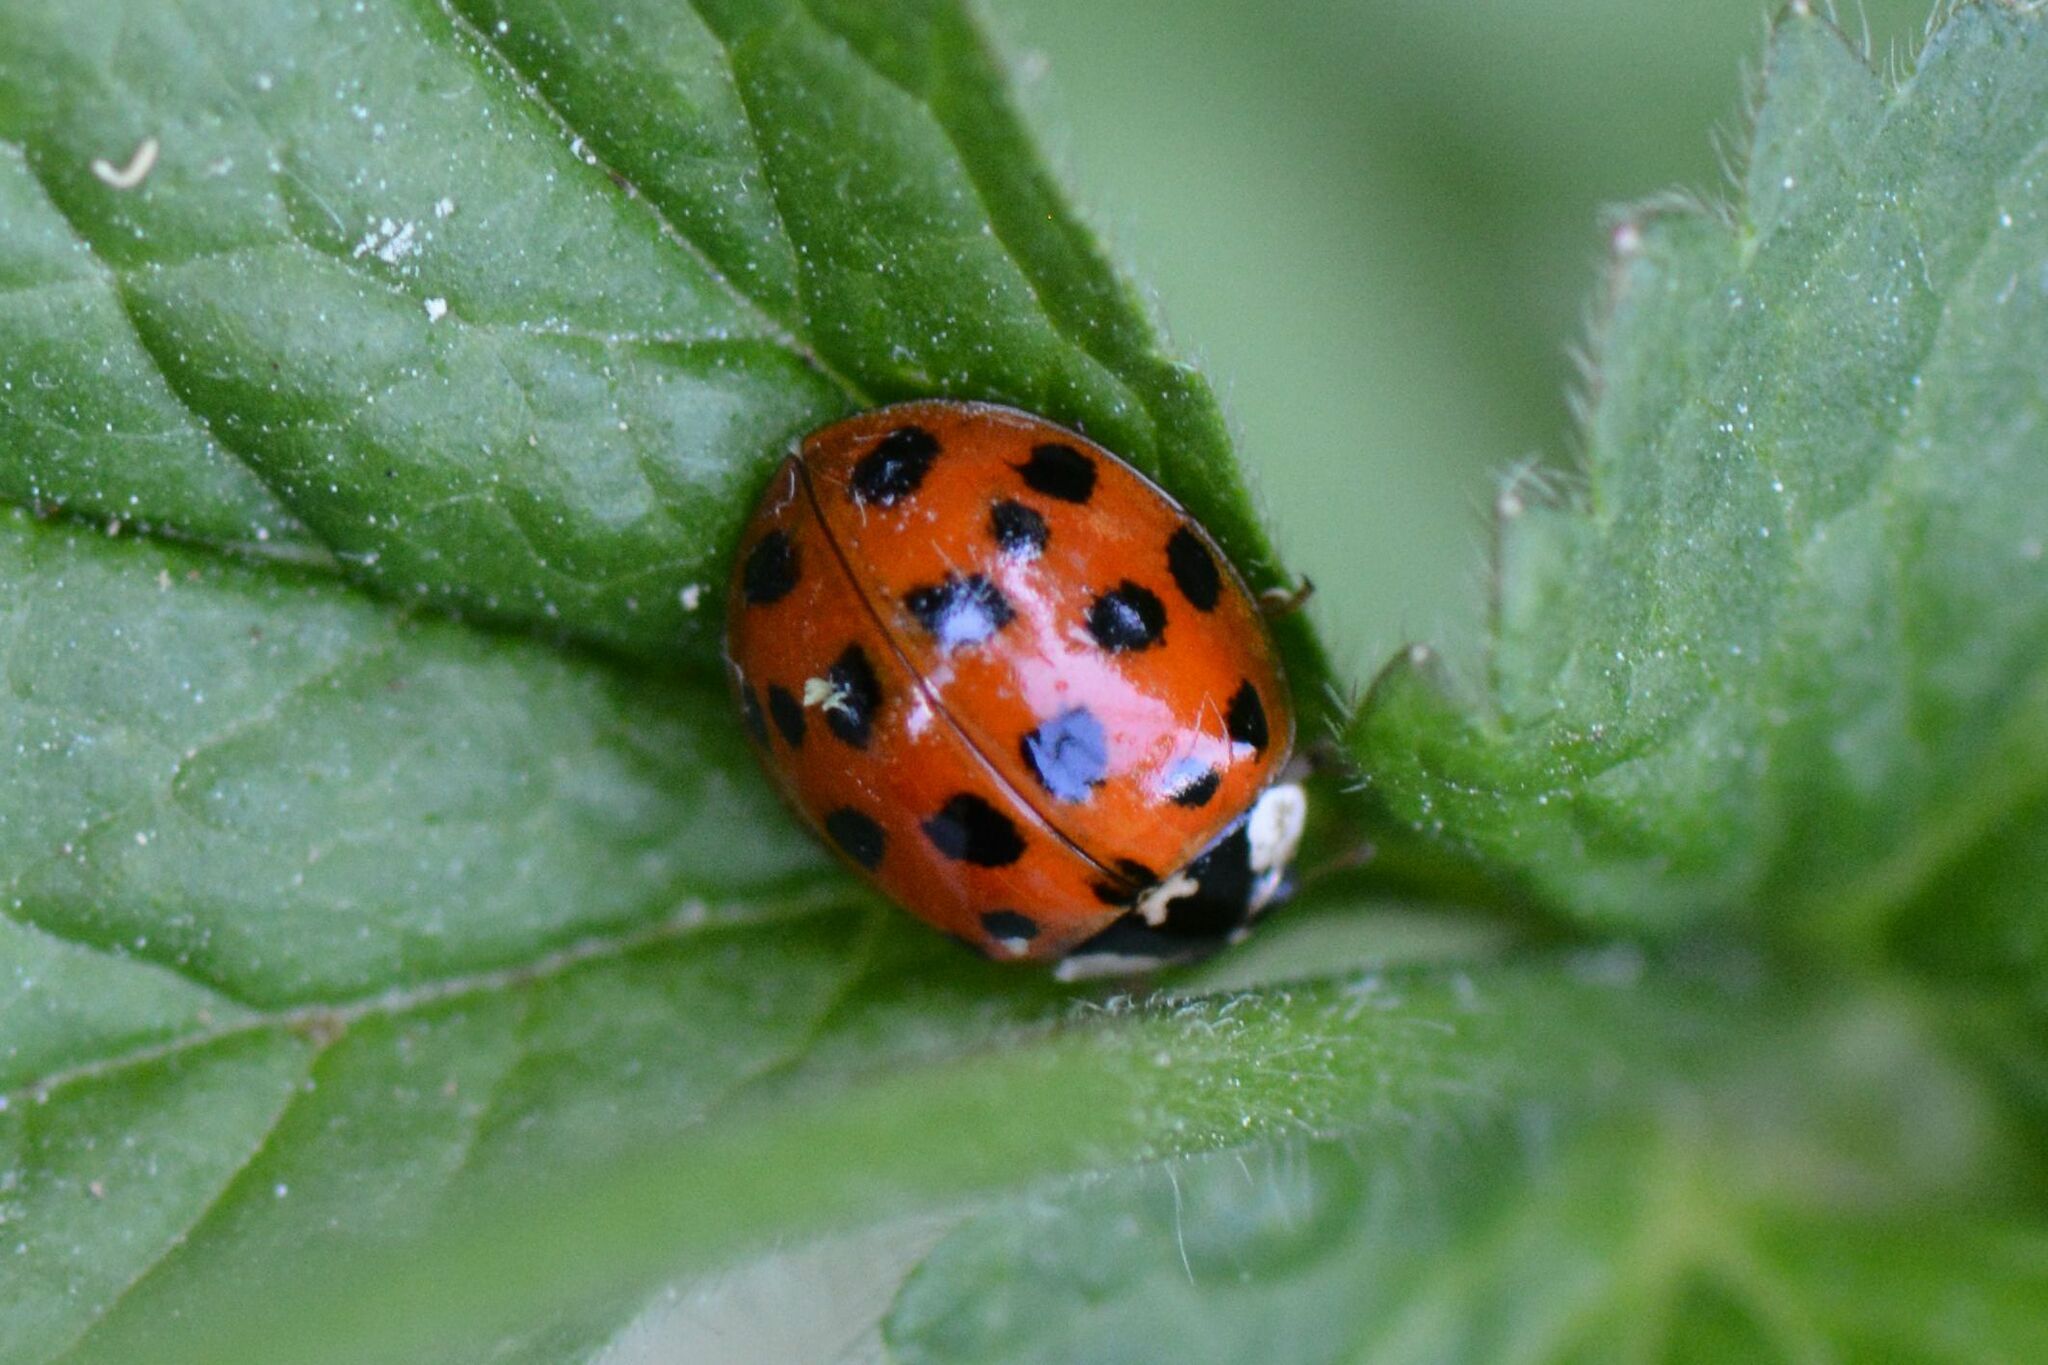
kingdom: Animalia
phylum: Arthropoda
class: Insecta
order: Coleoptera
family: Coccinellidae
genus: Harmonia
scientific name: Harmonia axyridis
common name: Harlequin ladybird
